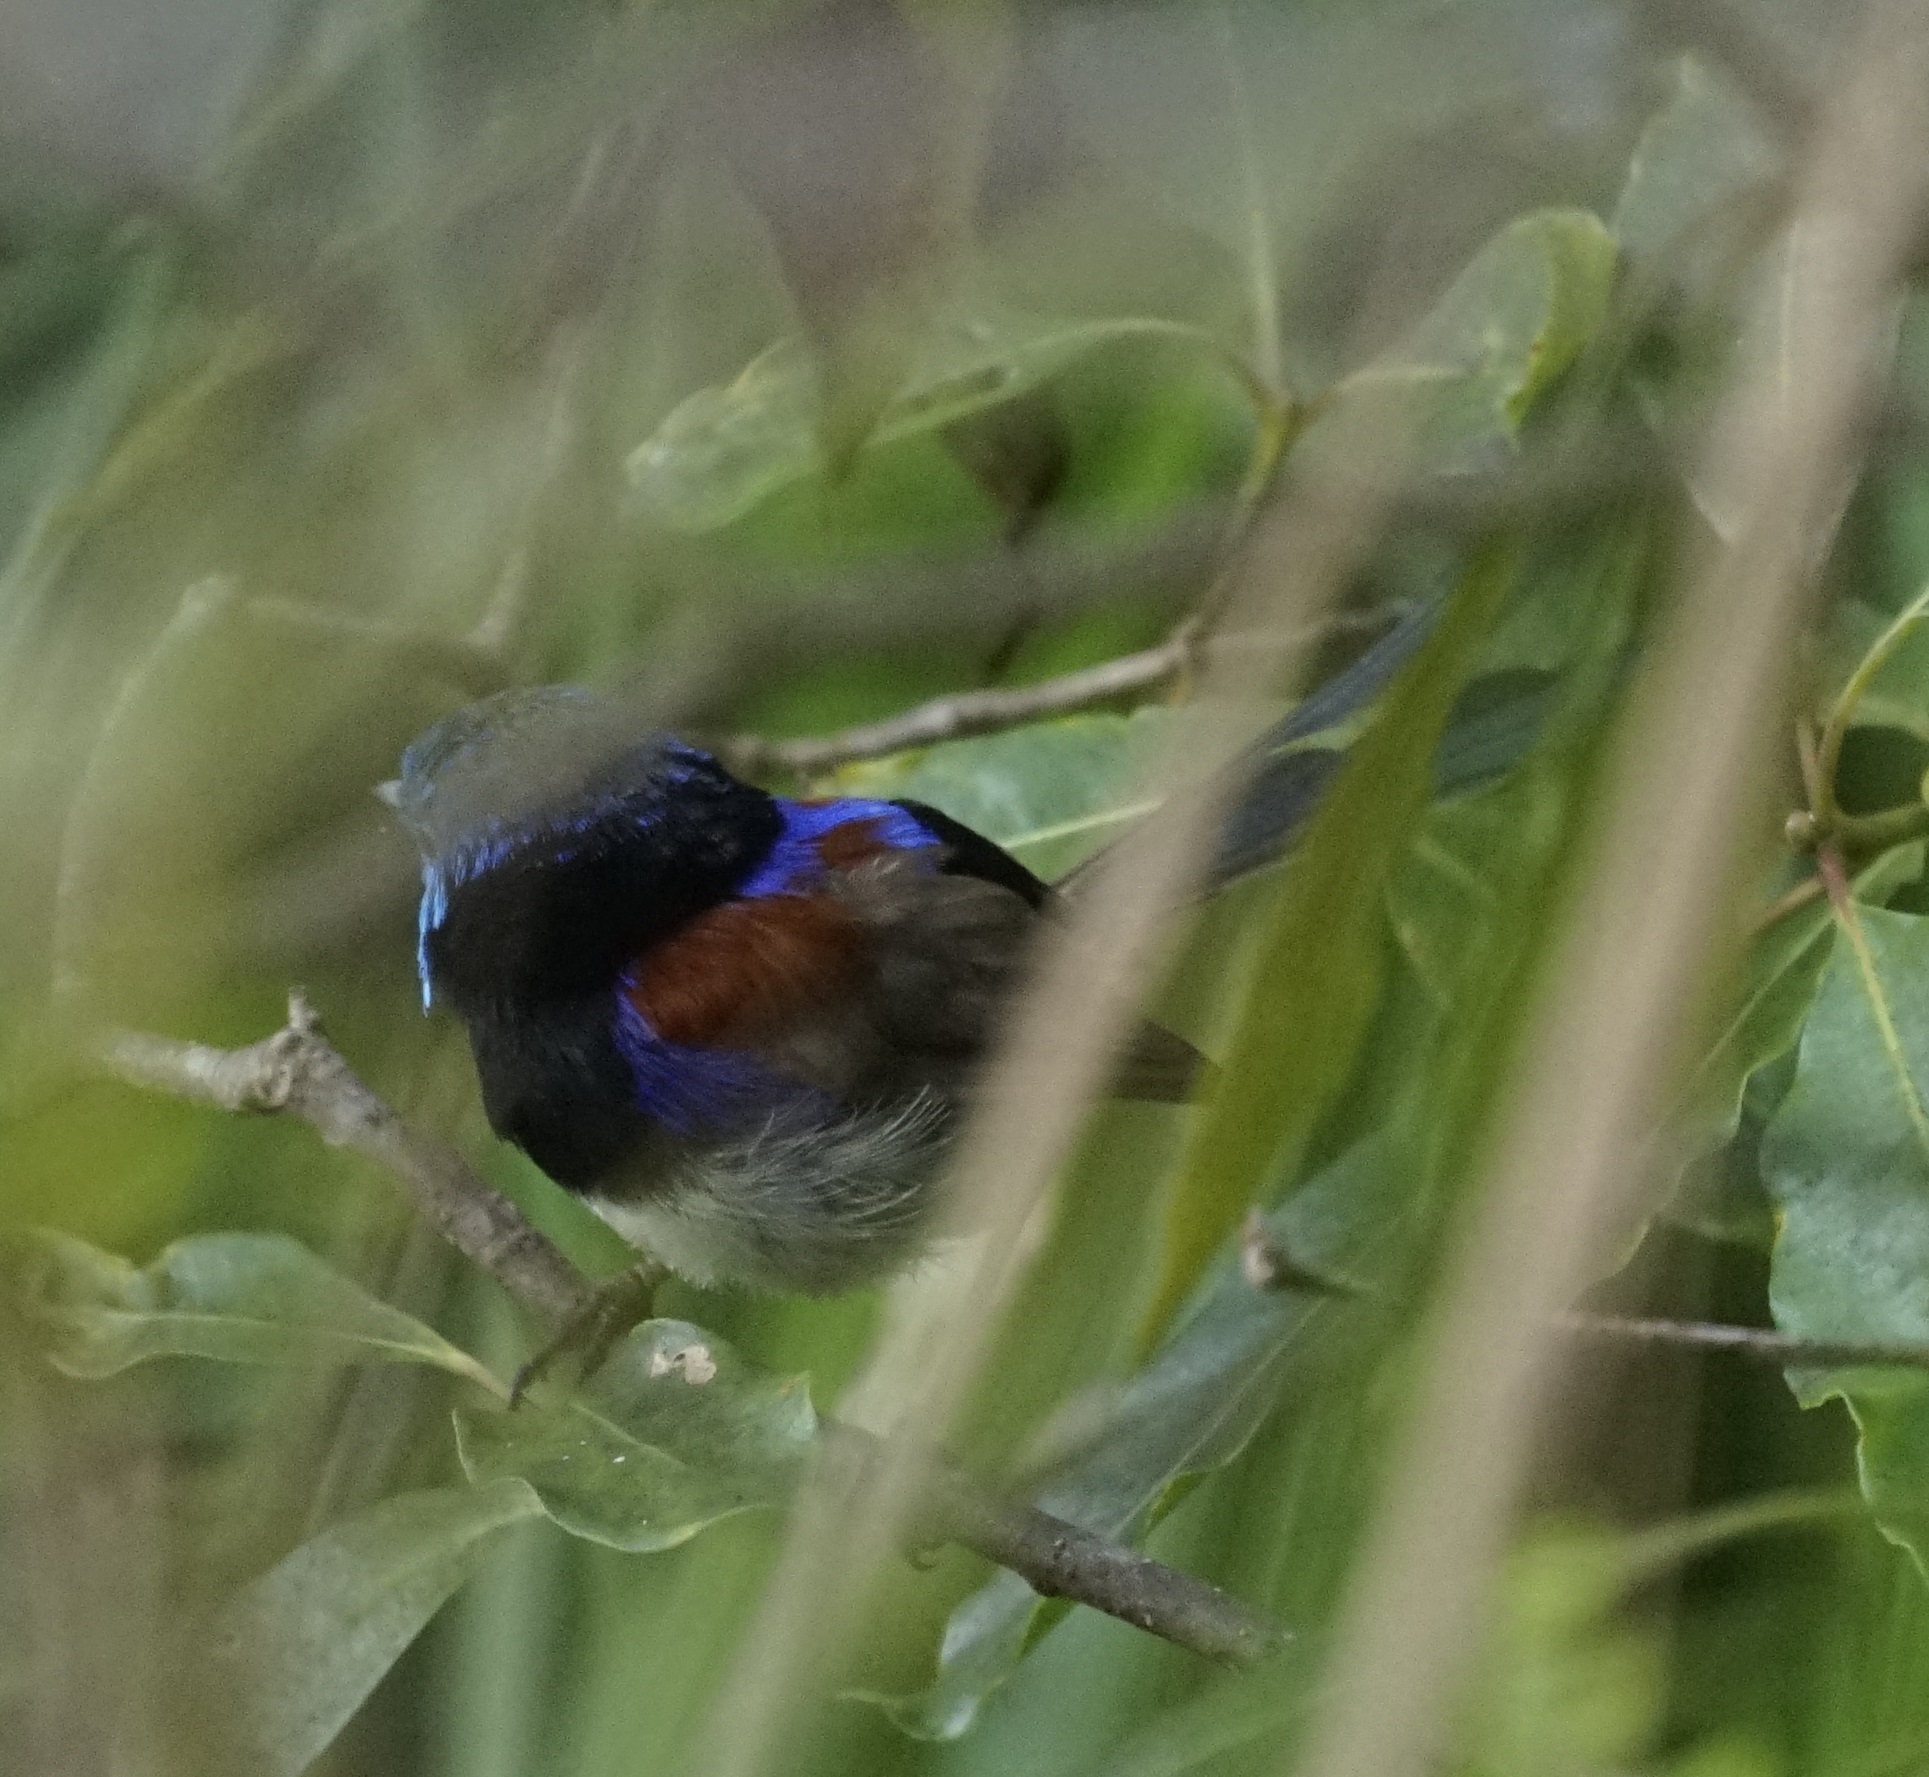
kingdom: Animalia
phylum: Chordata
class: Aves
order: Passeriformes
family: Maluridae
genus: Malurus
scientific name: Malurus lamberti
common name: Variegated fairywren
